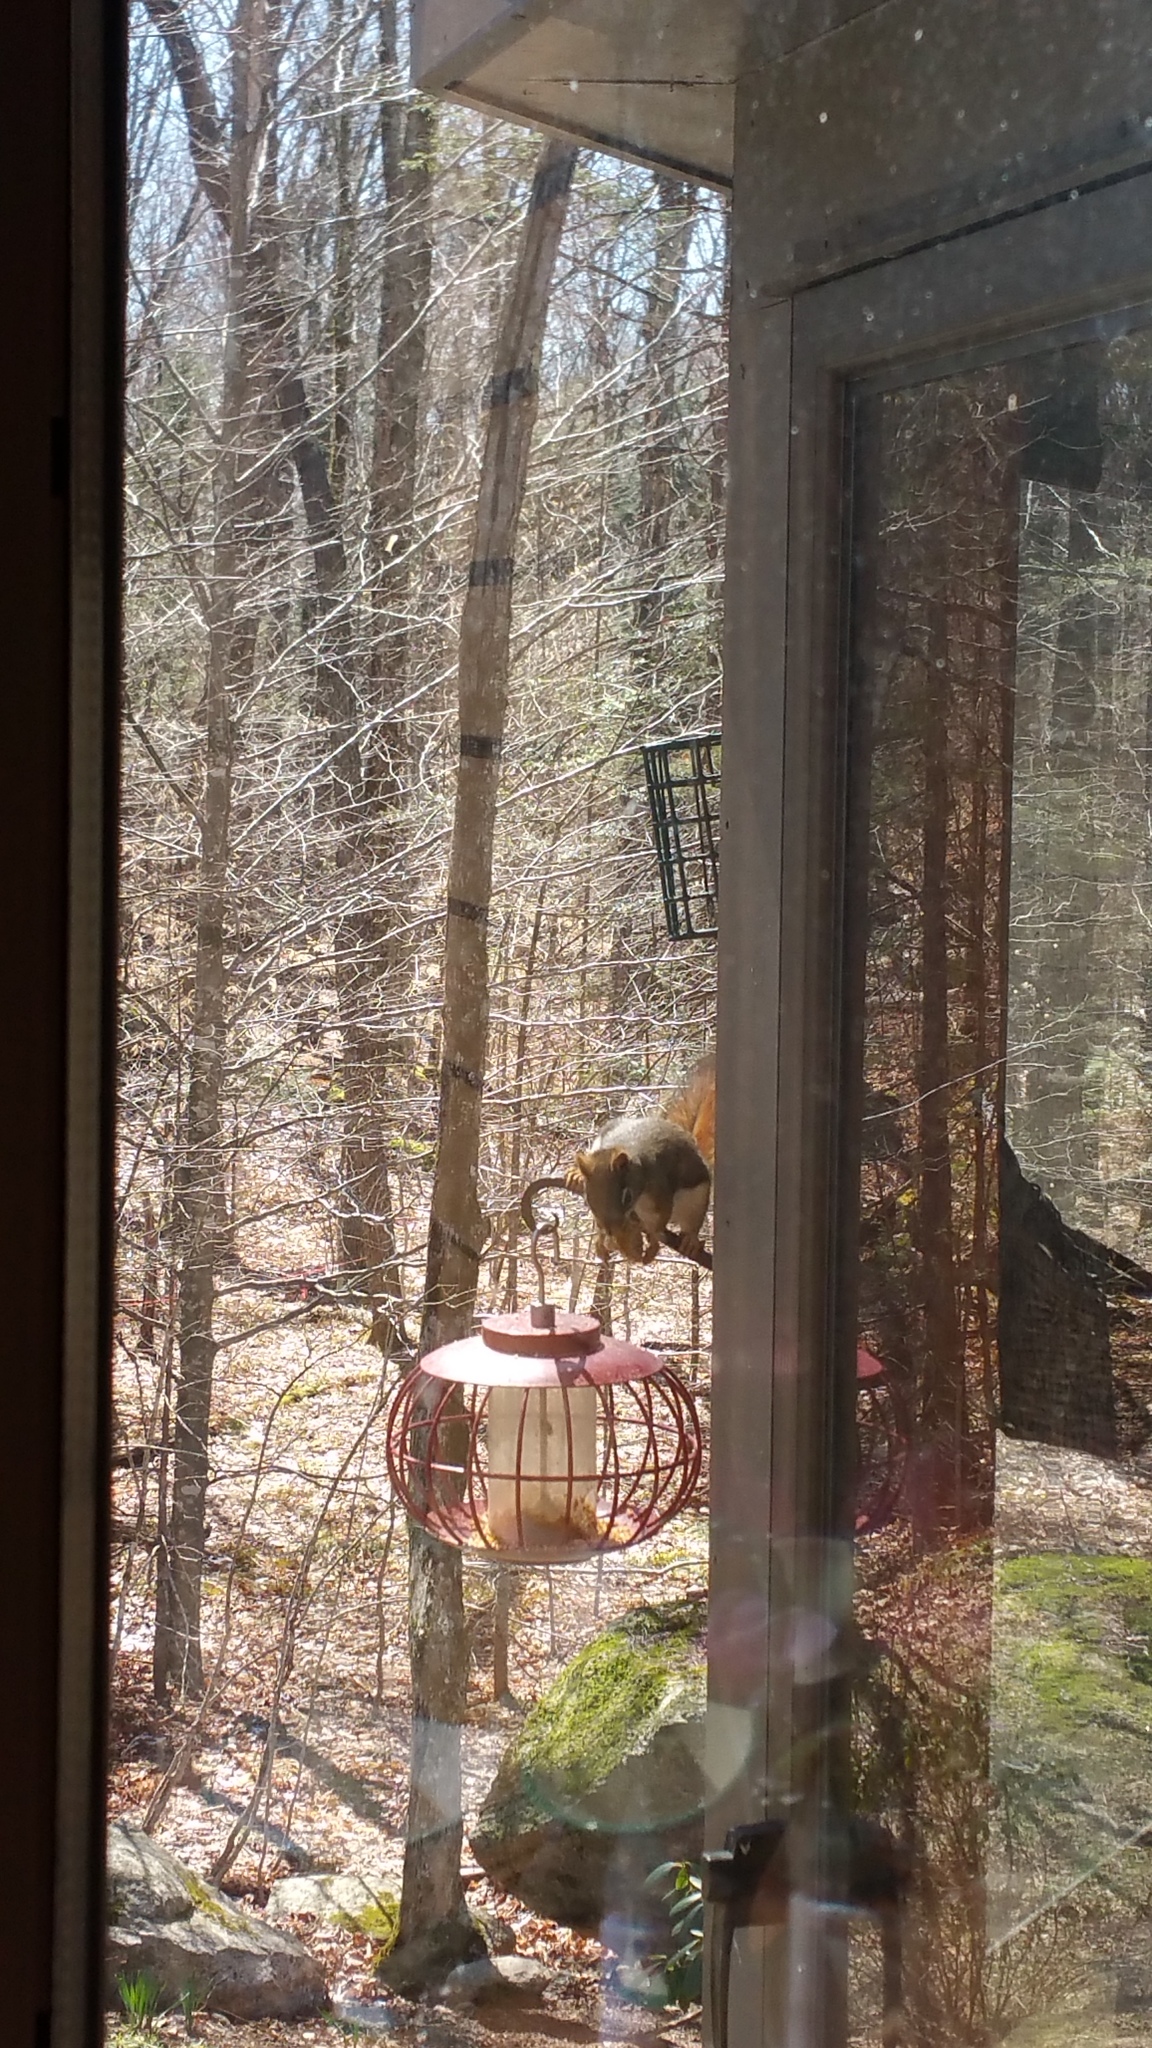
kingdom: Animalia
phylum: Chordata
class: Mammalia
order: Rodentia
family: Sciuridae
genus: Tamiasciurus
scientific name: Tamiasciurus hudsonicus
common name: Red squirrel
